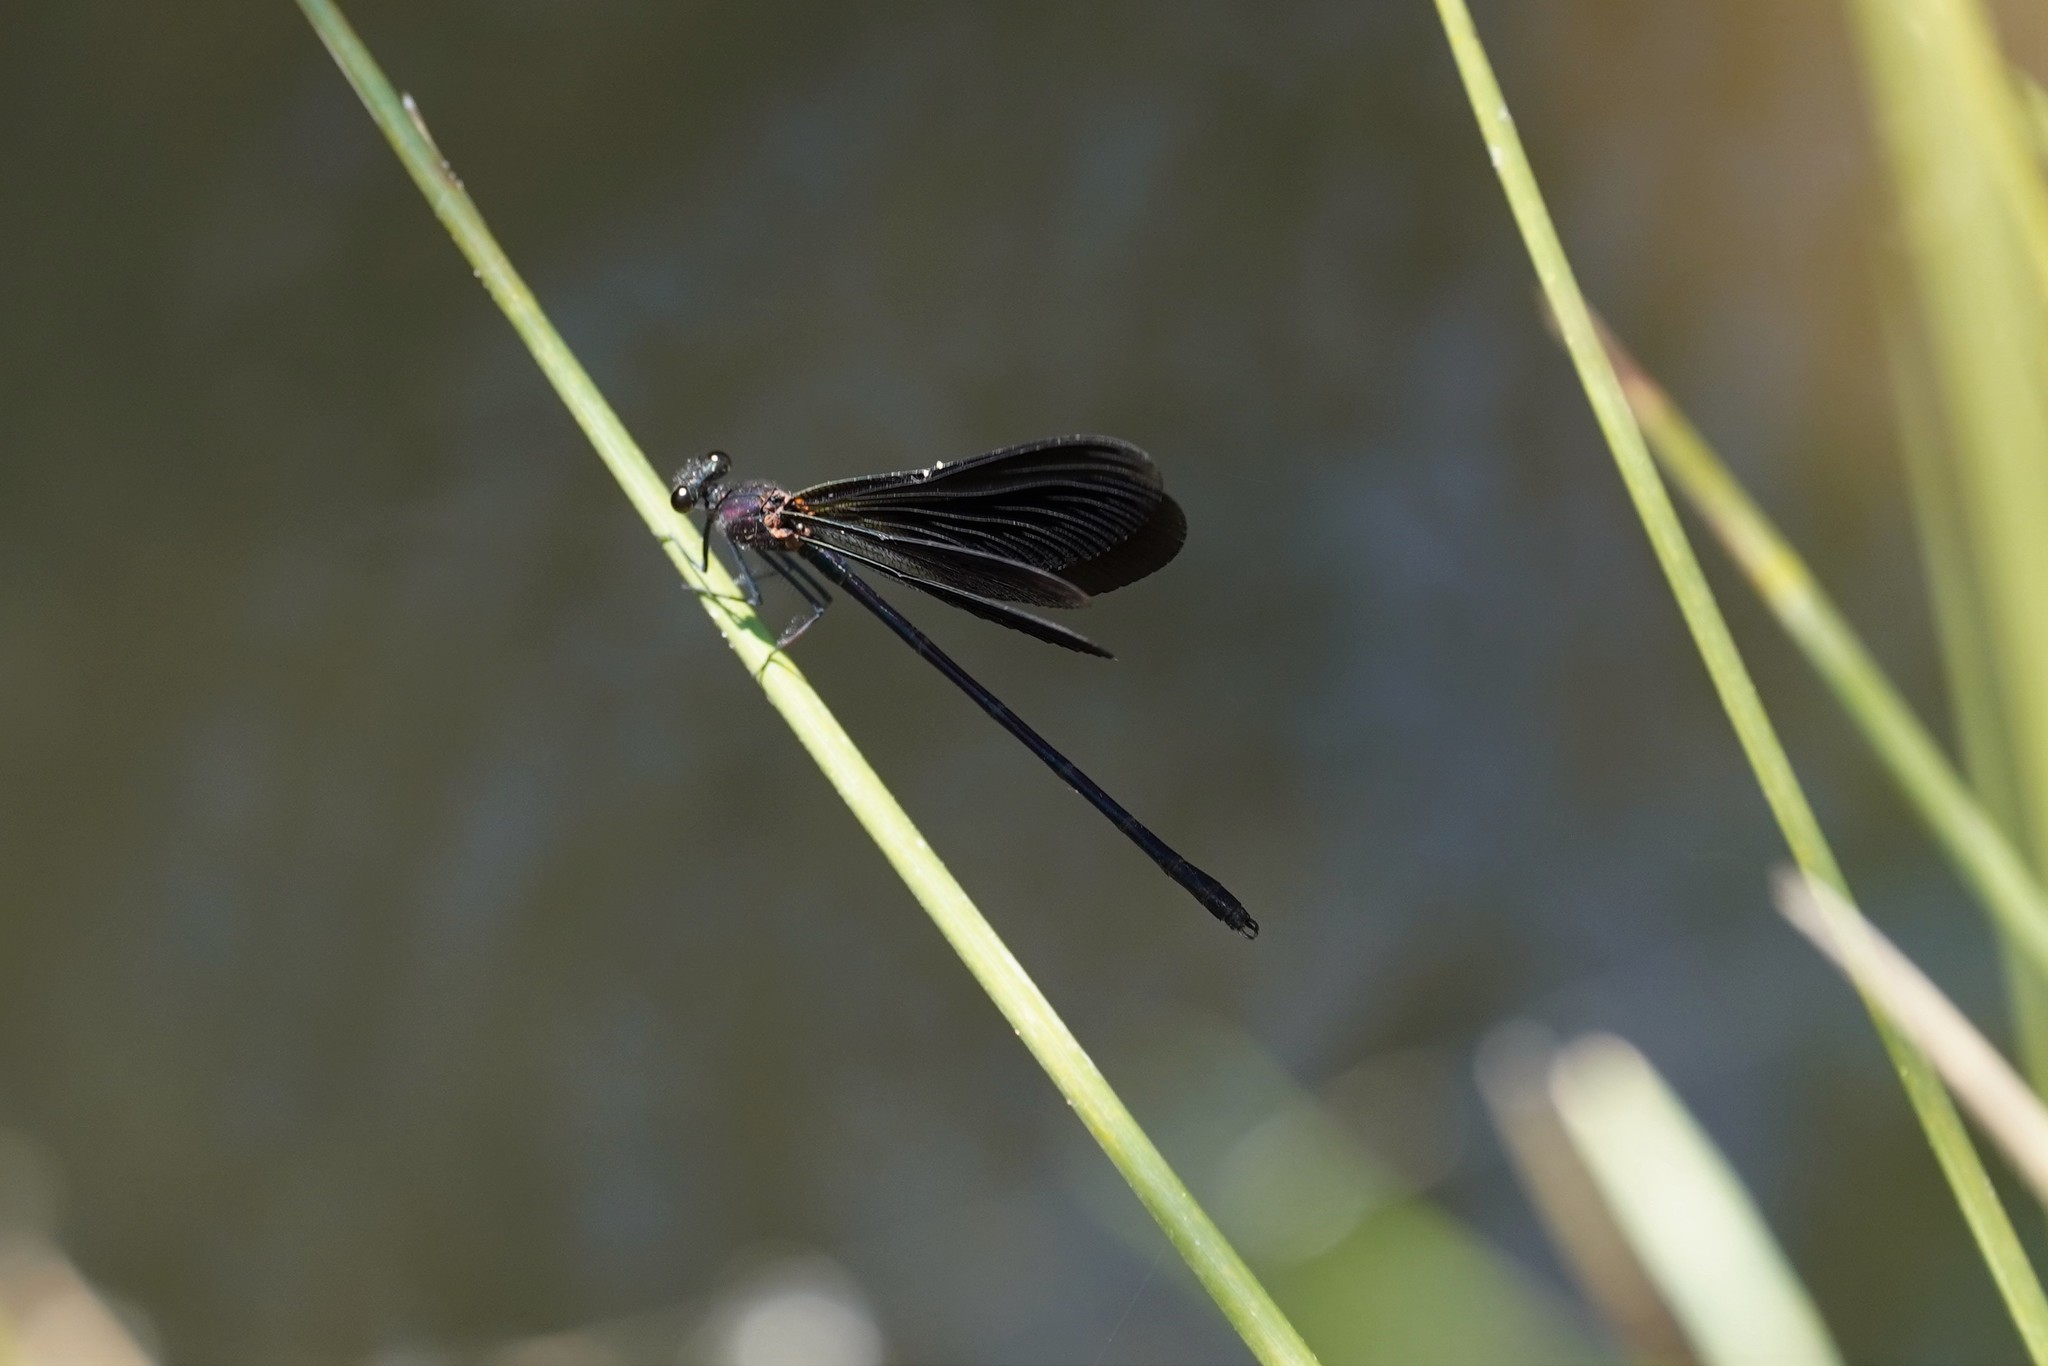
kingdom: Animalia
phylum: Arthropoda
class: Insecta
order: Odonata
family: Calopterygidae
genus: Calopteryx
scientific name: Calopteryx haemorrhoidalis
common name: Copper demoiselle
